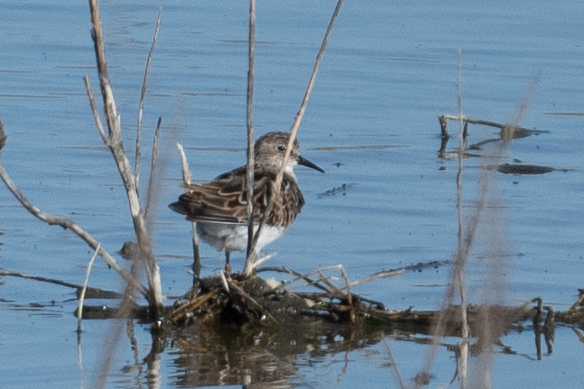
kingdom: Animalia
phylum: Chordata
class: Aves
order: Charadriiformes
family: Scolopacidae
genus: Calidris
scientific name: Calidris minutilla
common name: Least sandpiper
